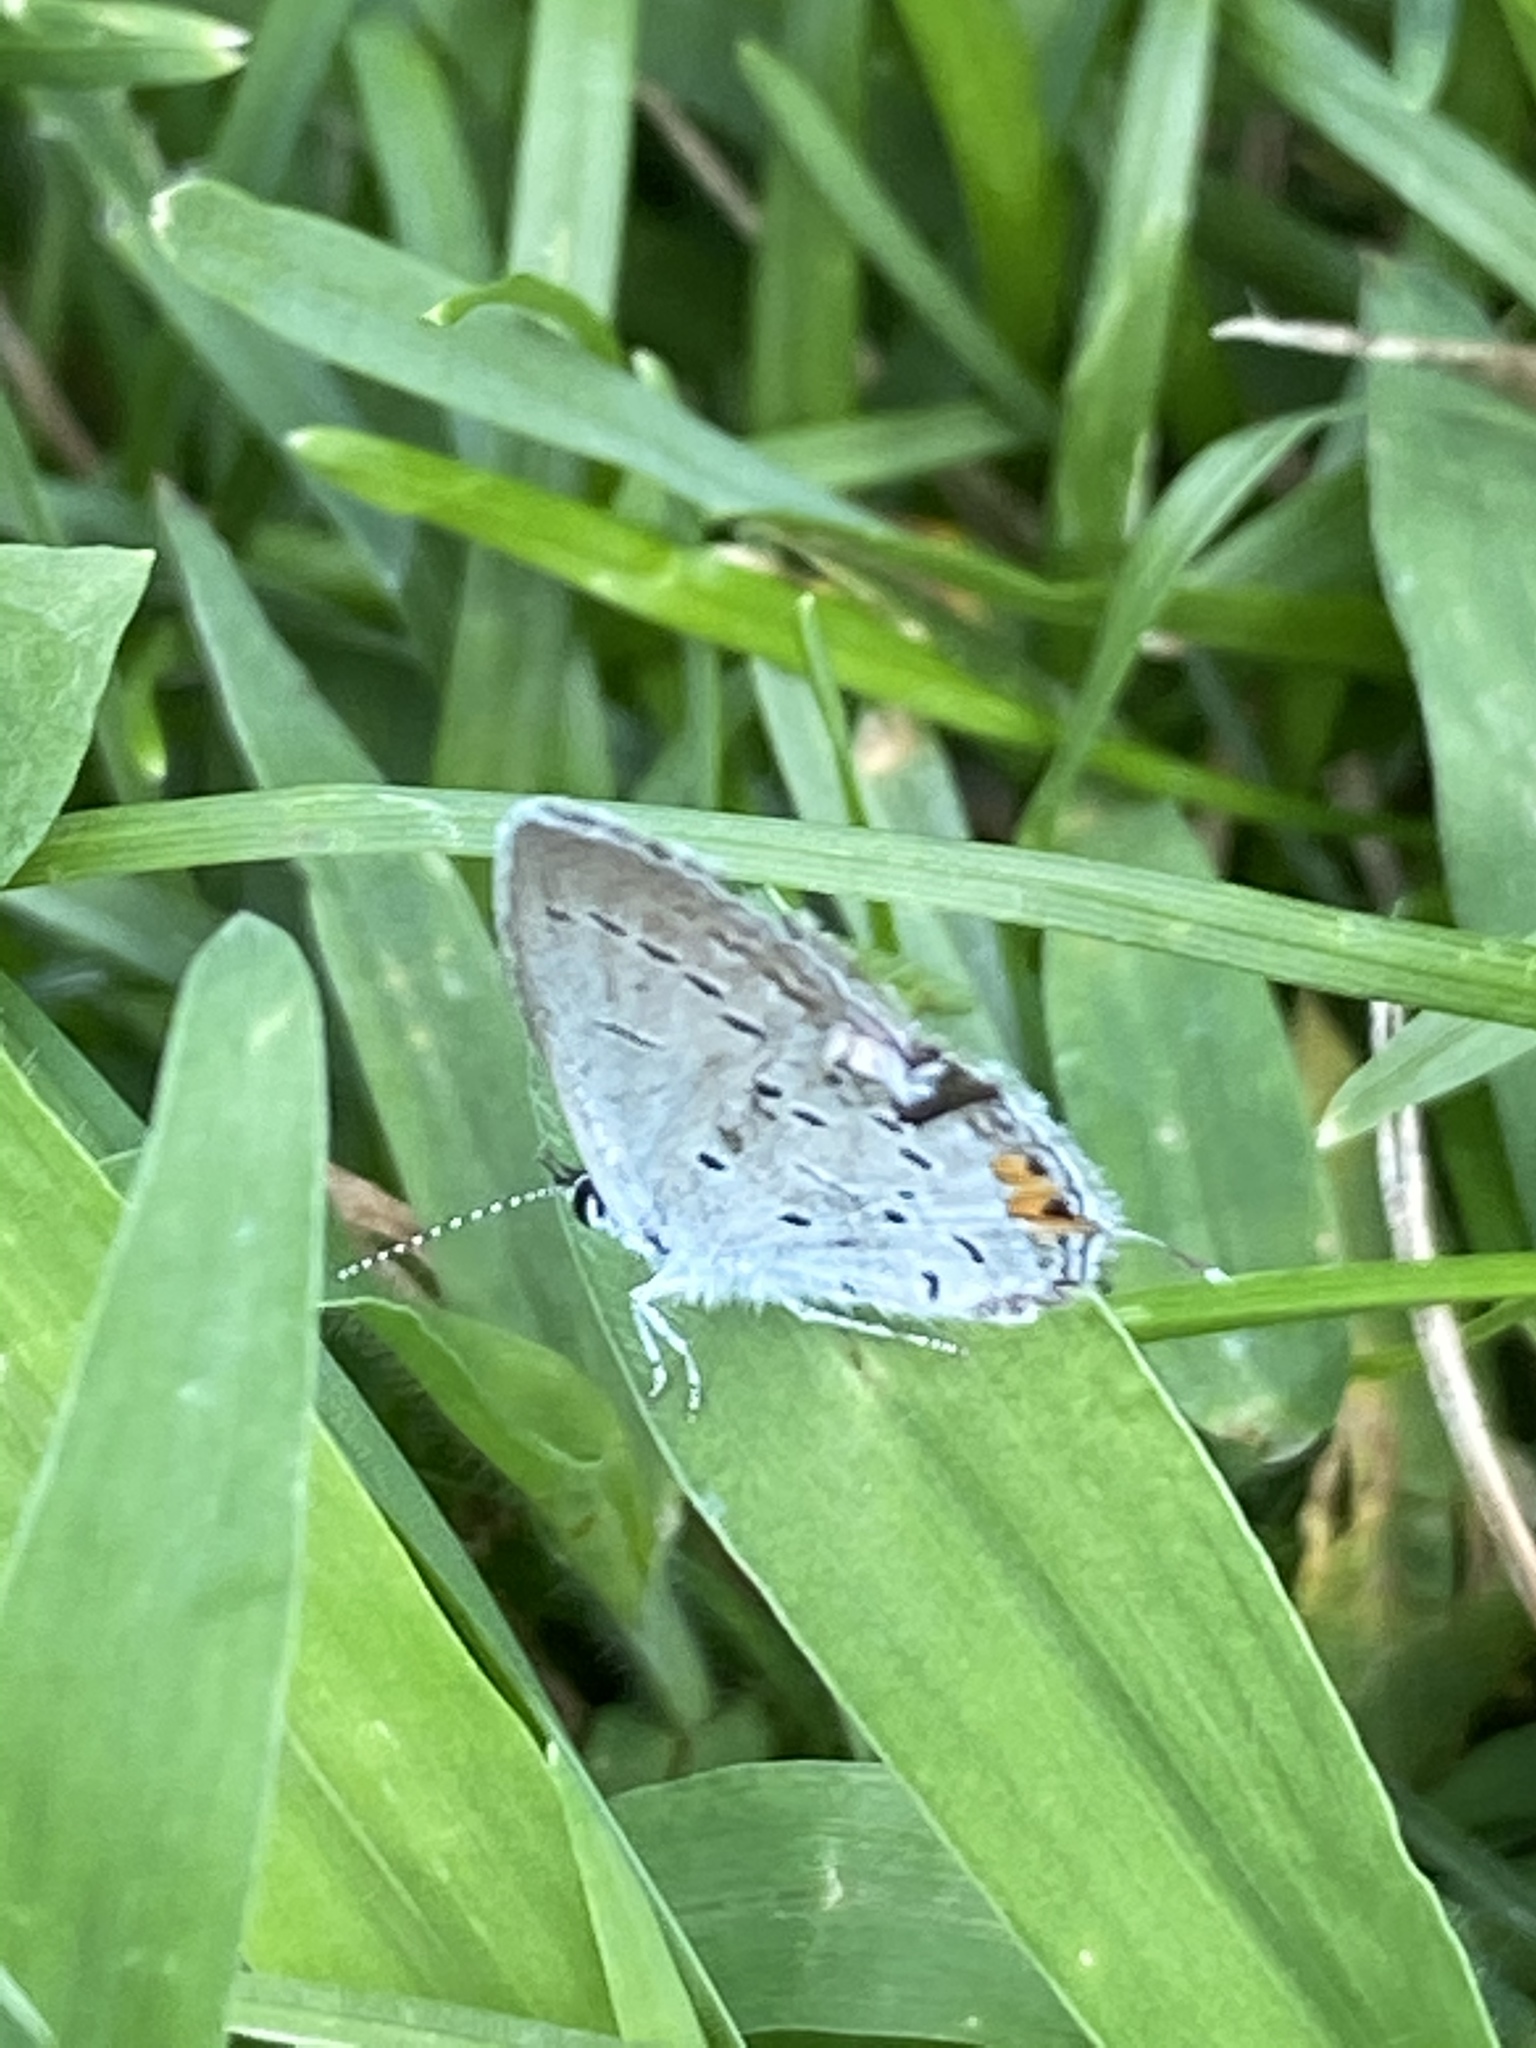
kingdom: Animalia
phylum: Arthropoda
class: Insecta
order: Lepidoptera
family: Lycaenidae
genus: Elkalyce
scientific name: Elkalyce comyntas
